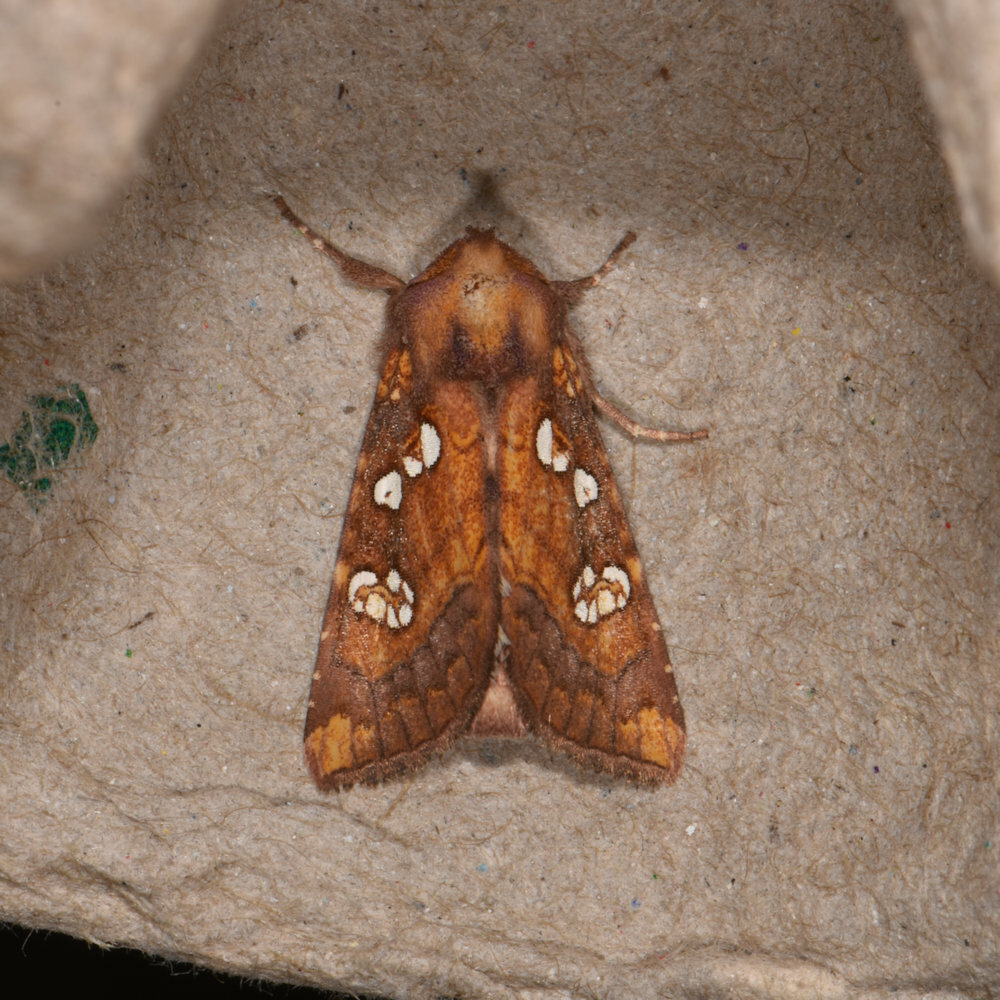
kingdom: Animalia
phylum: Arthropoda
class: Insecta
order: Lepidoptera
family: Noctuidae
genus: Papaipema
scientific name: Papaipema baptisiae
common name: Wild indigo borer moth
